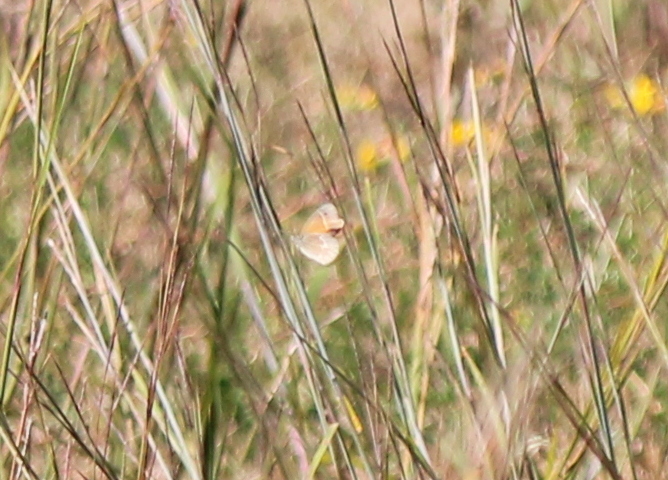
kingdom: Animalia
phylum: Arthropoda
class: Insecta
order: Lepidoptera
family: Nymphalidae
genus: Coenonympha
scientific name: Coenonympha california
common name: Common ringlet
